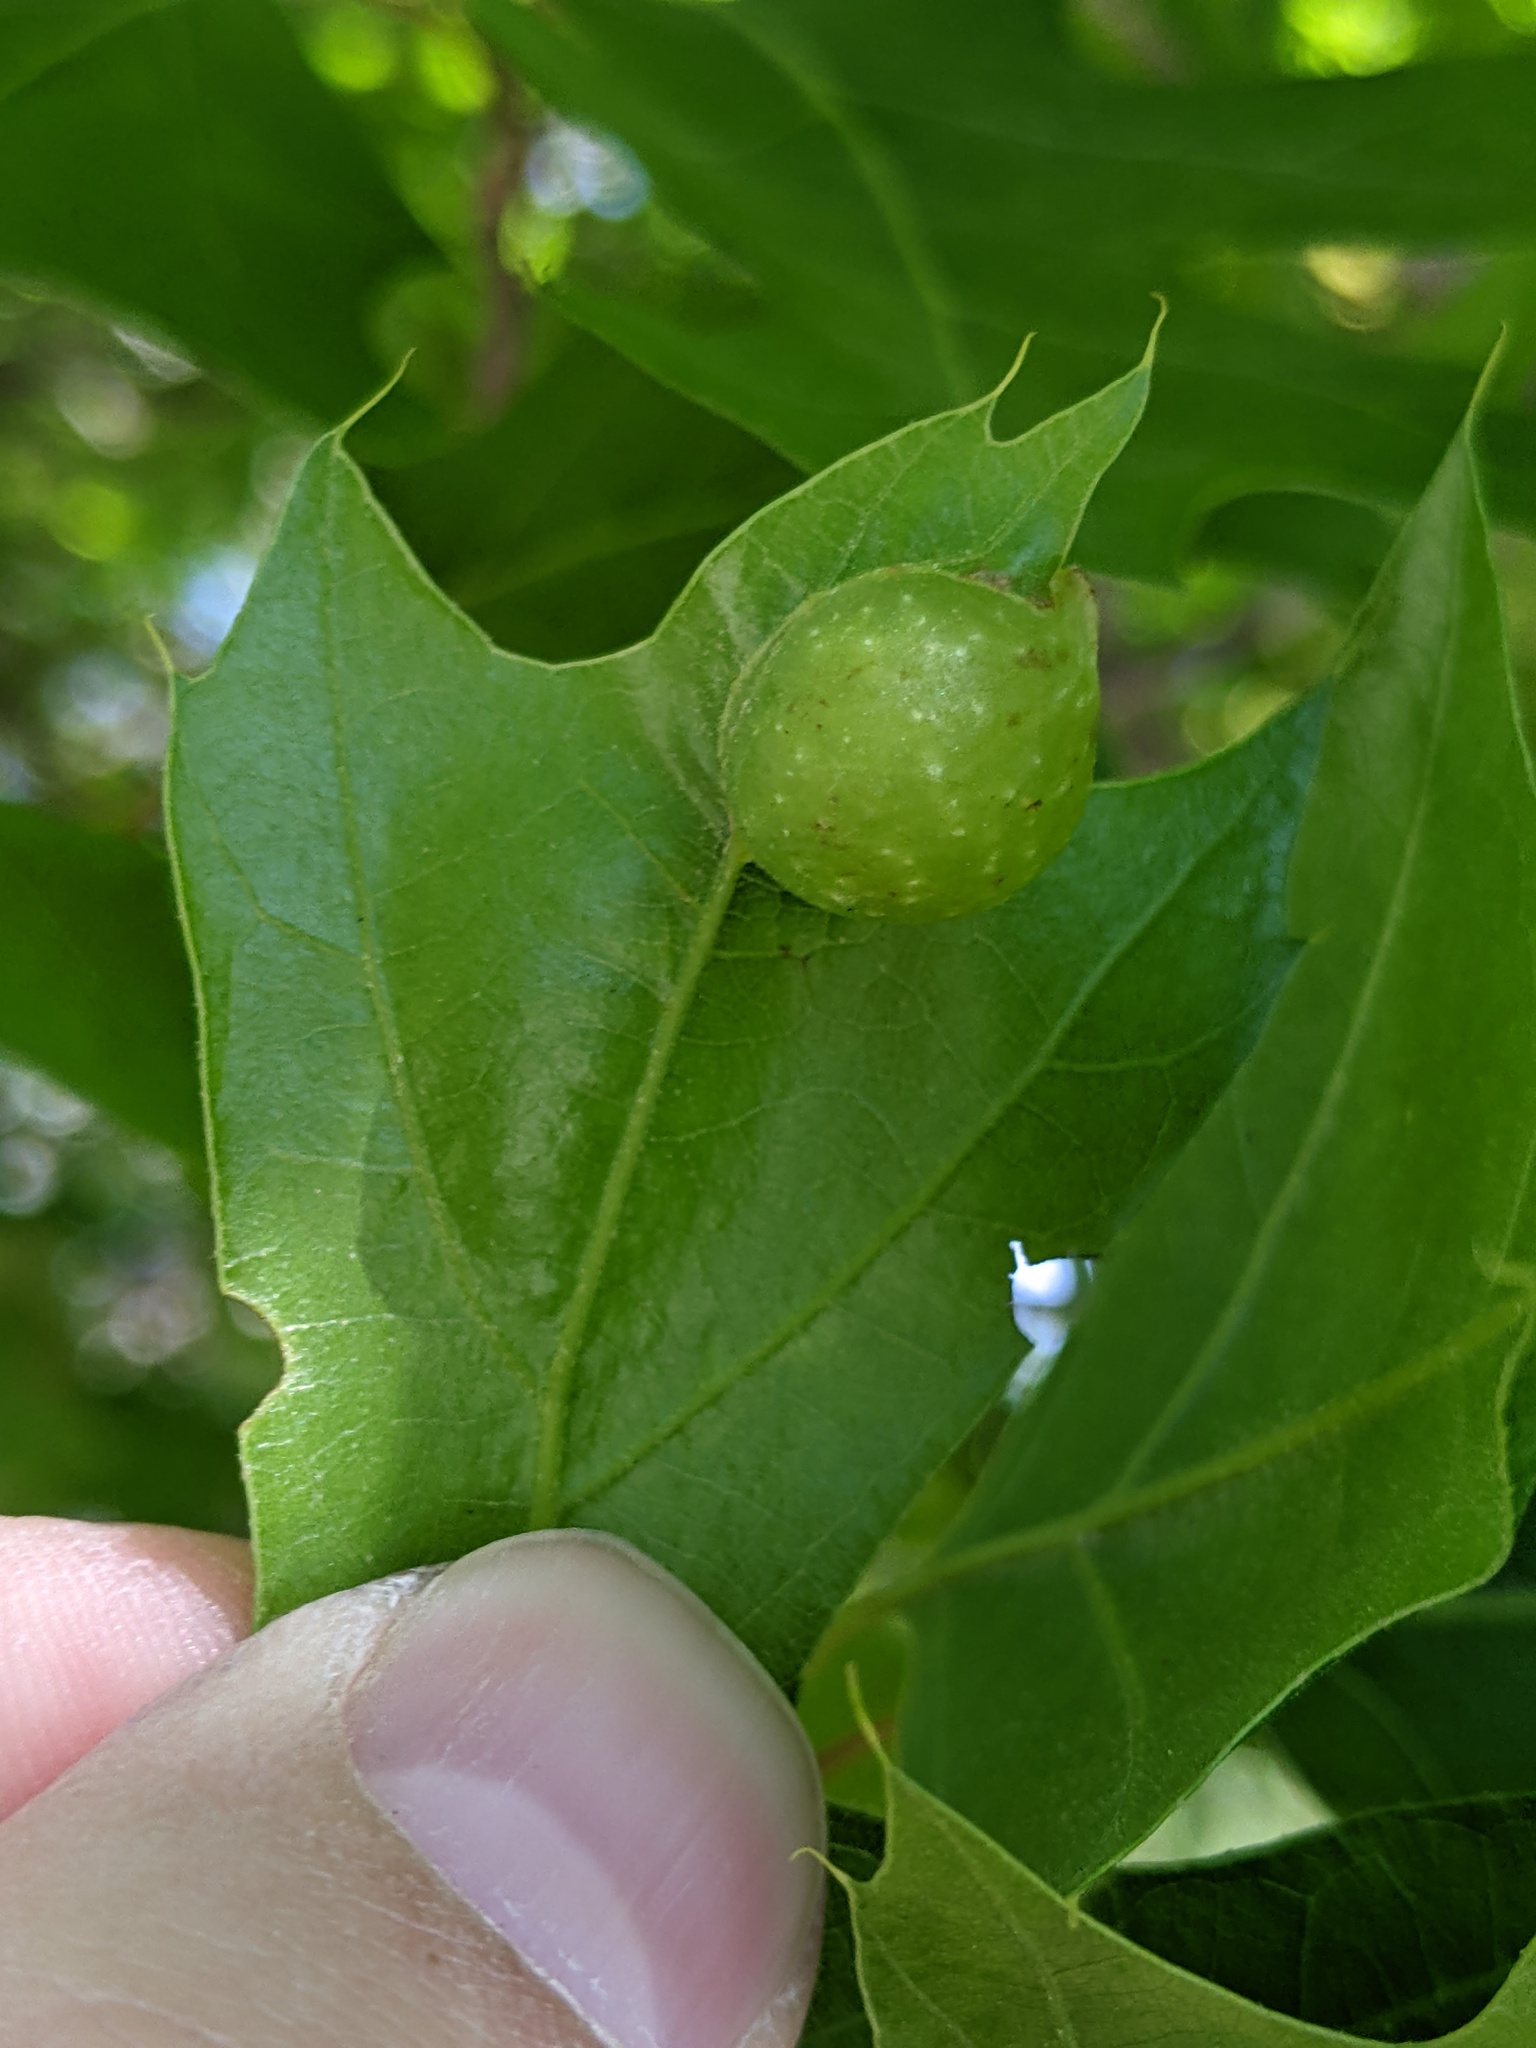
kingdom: Animalia
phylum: Arthropoda
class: Insecta
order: Hymenoptera
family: Cynipidae
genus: Dryocosmus
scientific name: Dryocosmus quercuspalustris
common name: Succulent oak gall wasp
